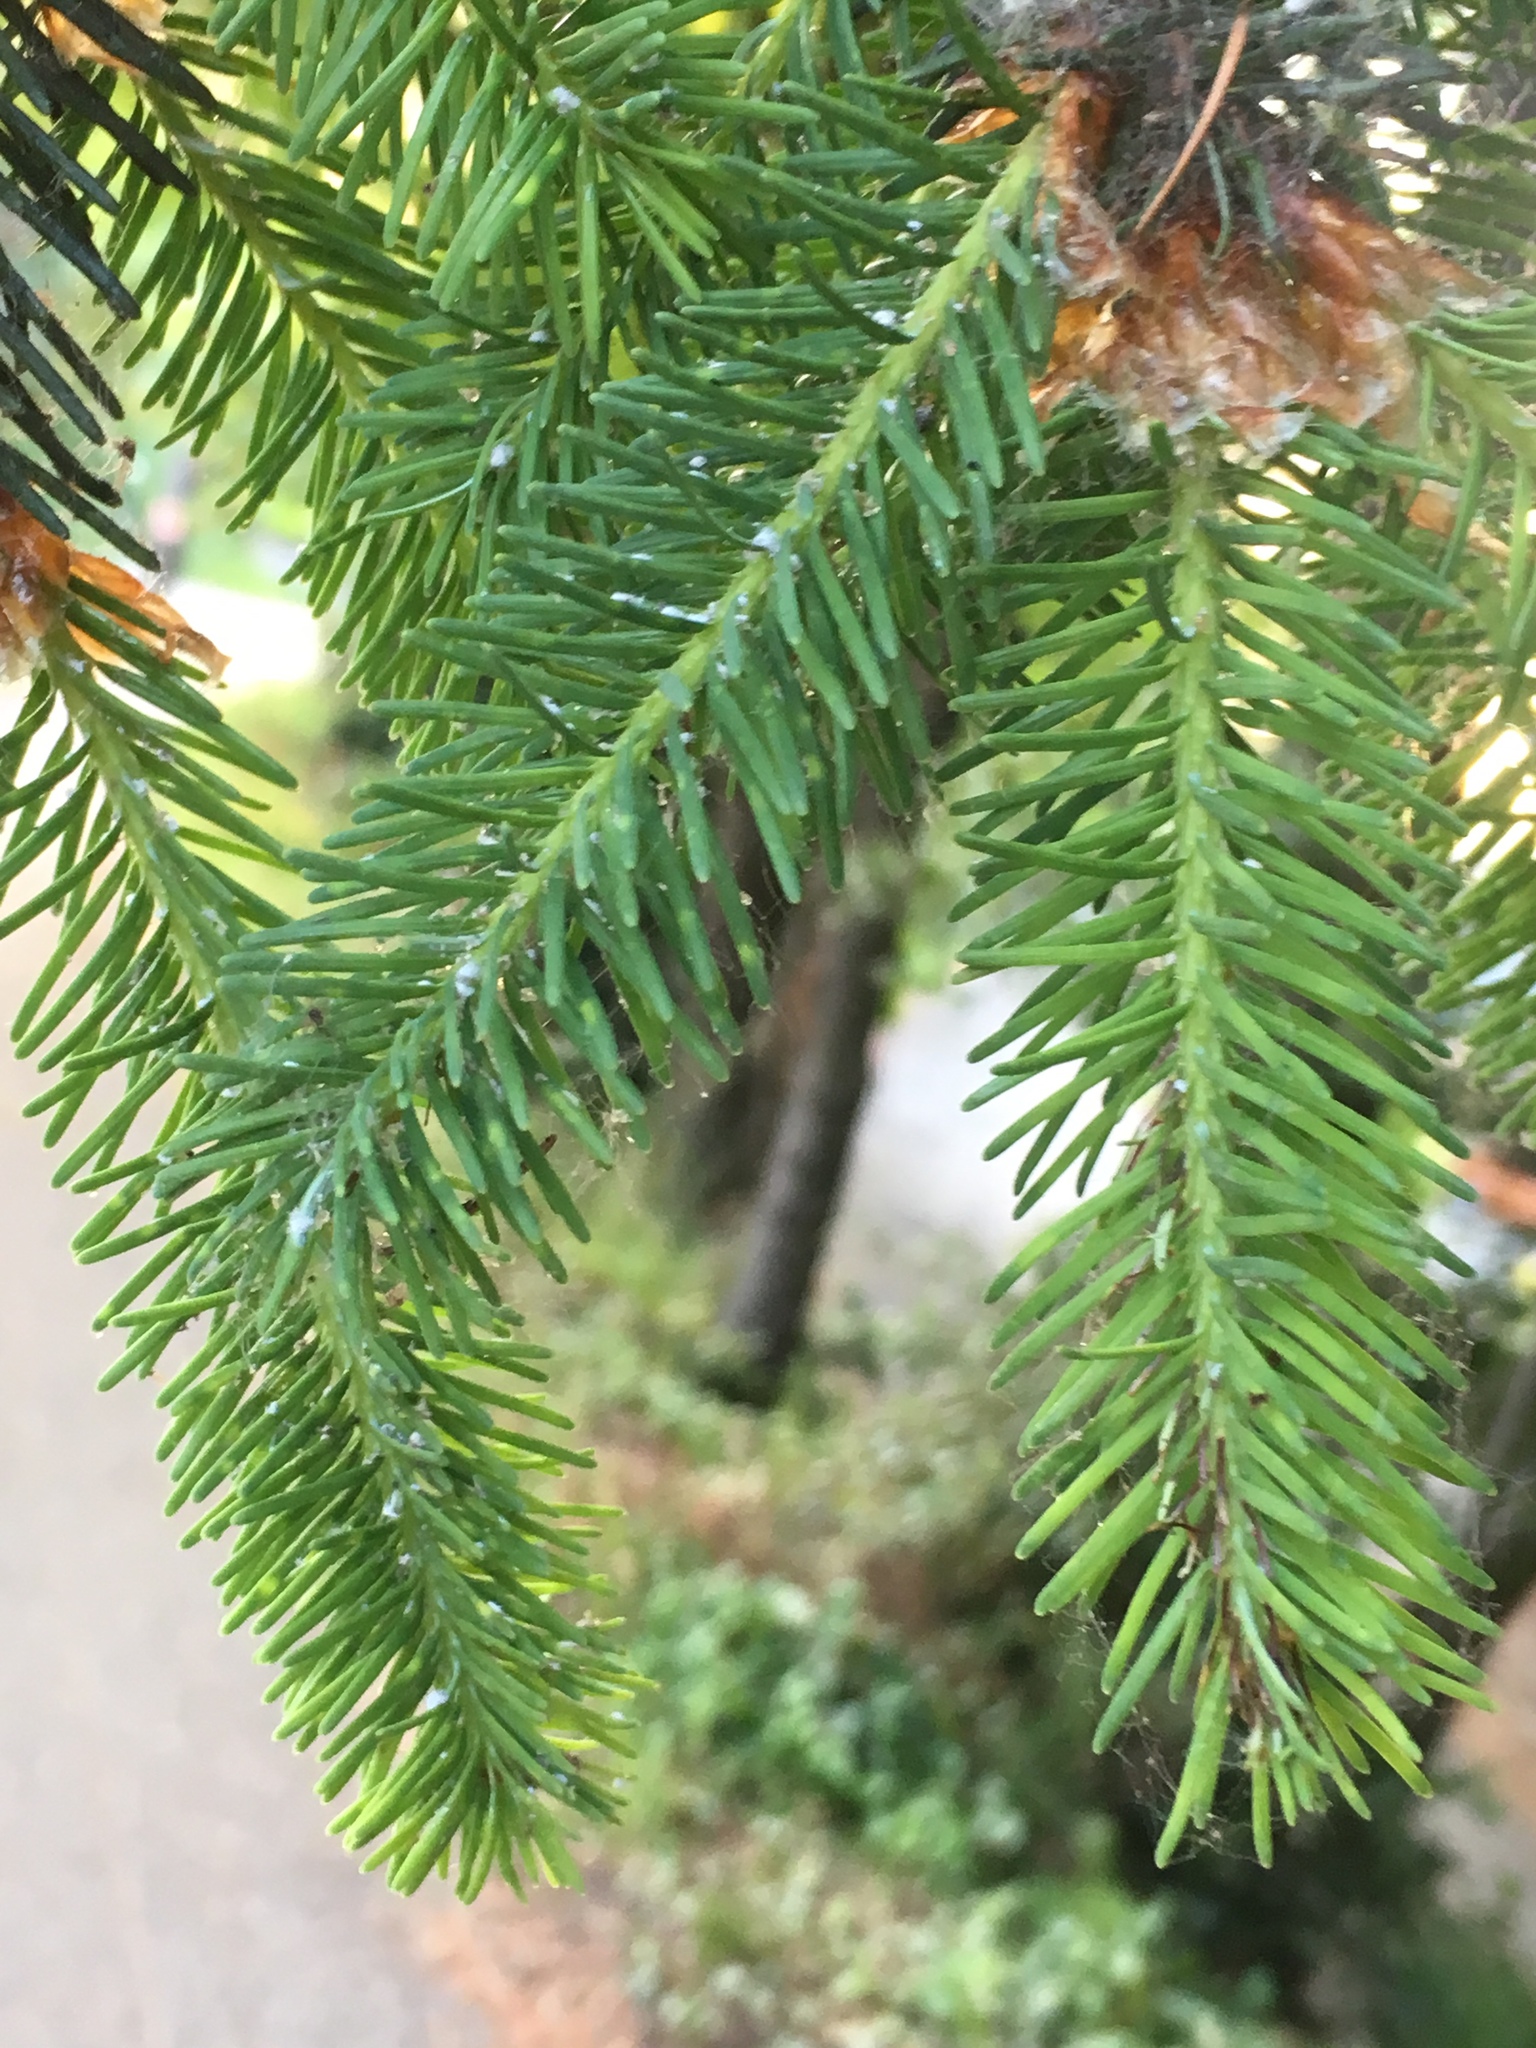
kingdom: Plantae
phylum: Tracheophyta
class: Pinopsida
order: Pinales
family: Pinaceae
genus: Pseudotsuga
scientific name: Pseudotsuga menziesii
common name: Douglas fir
